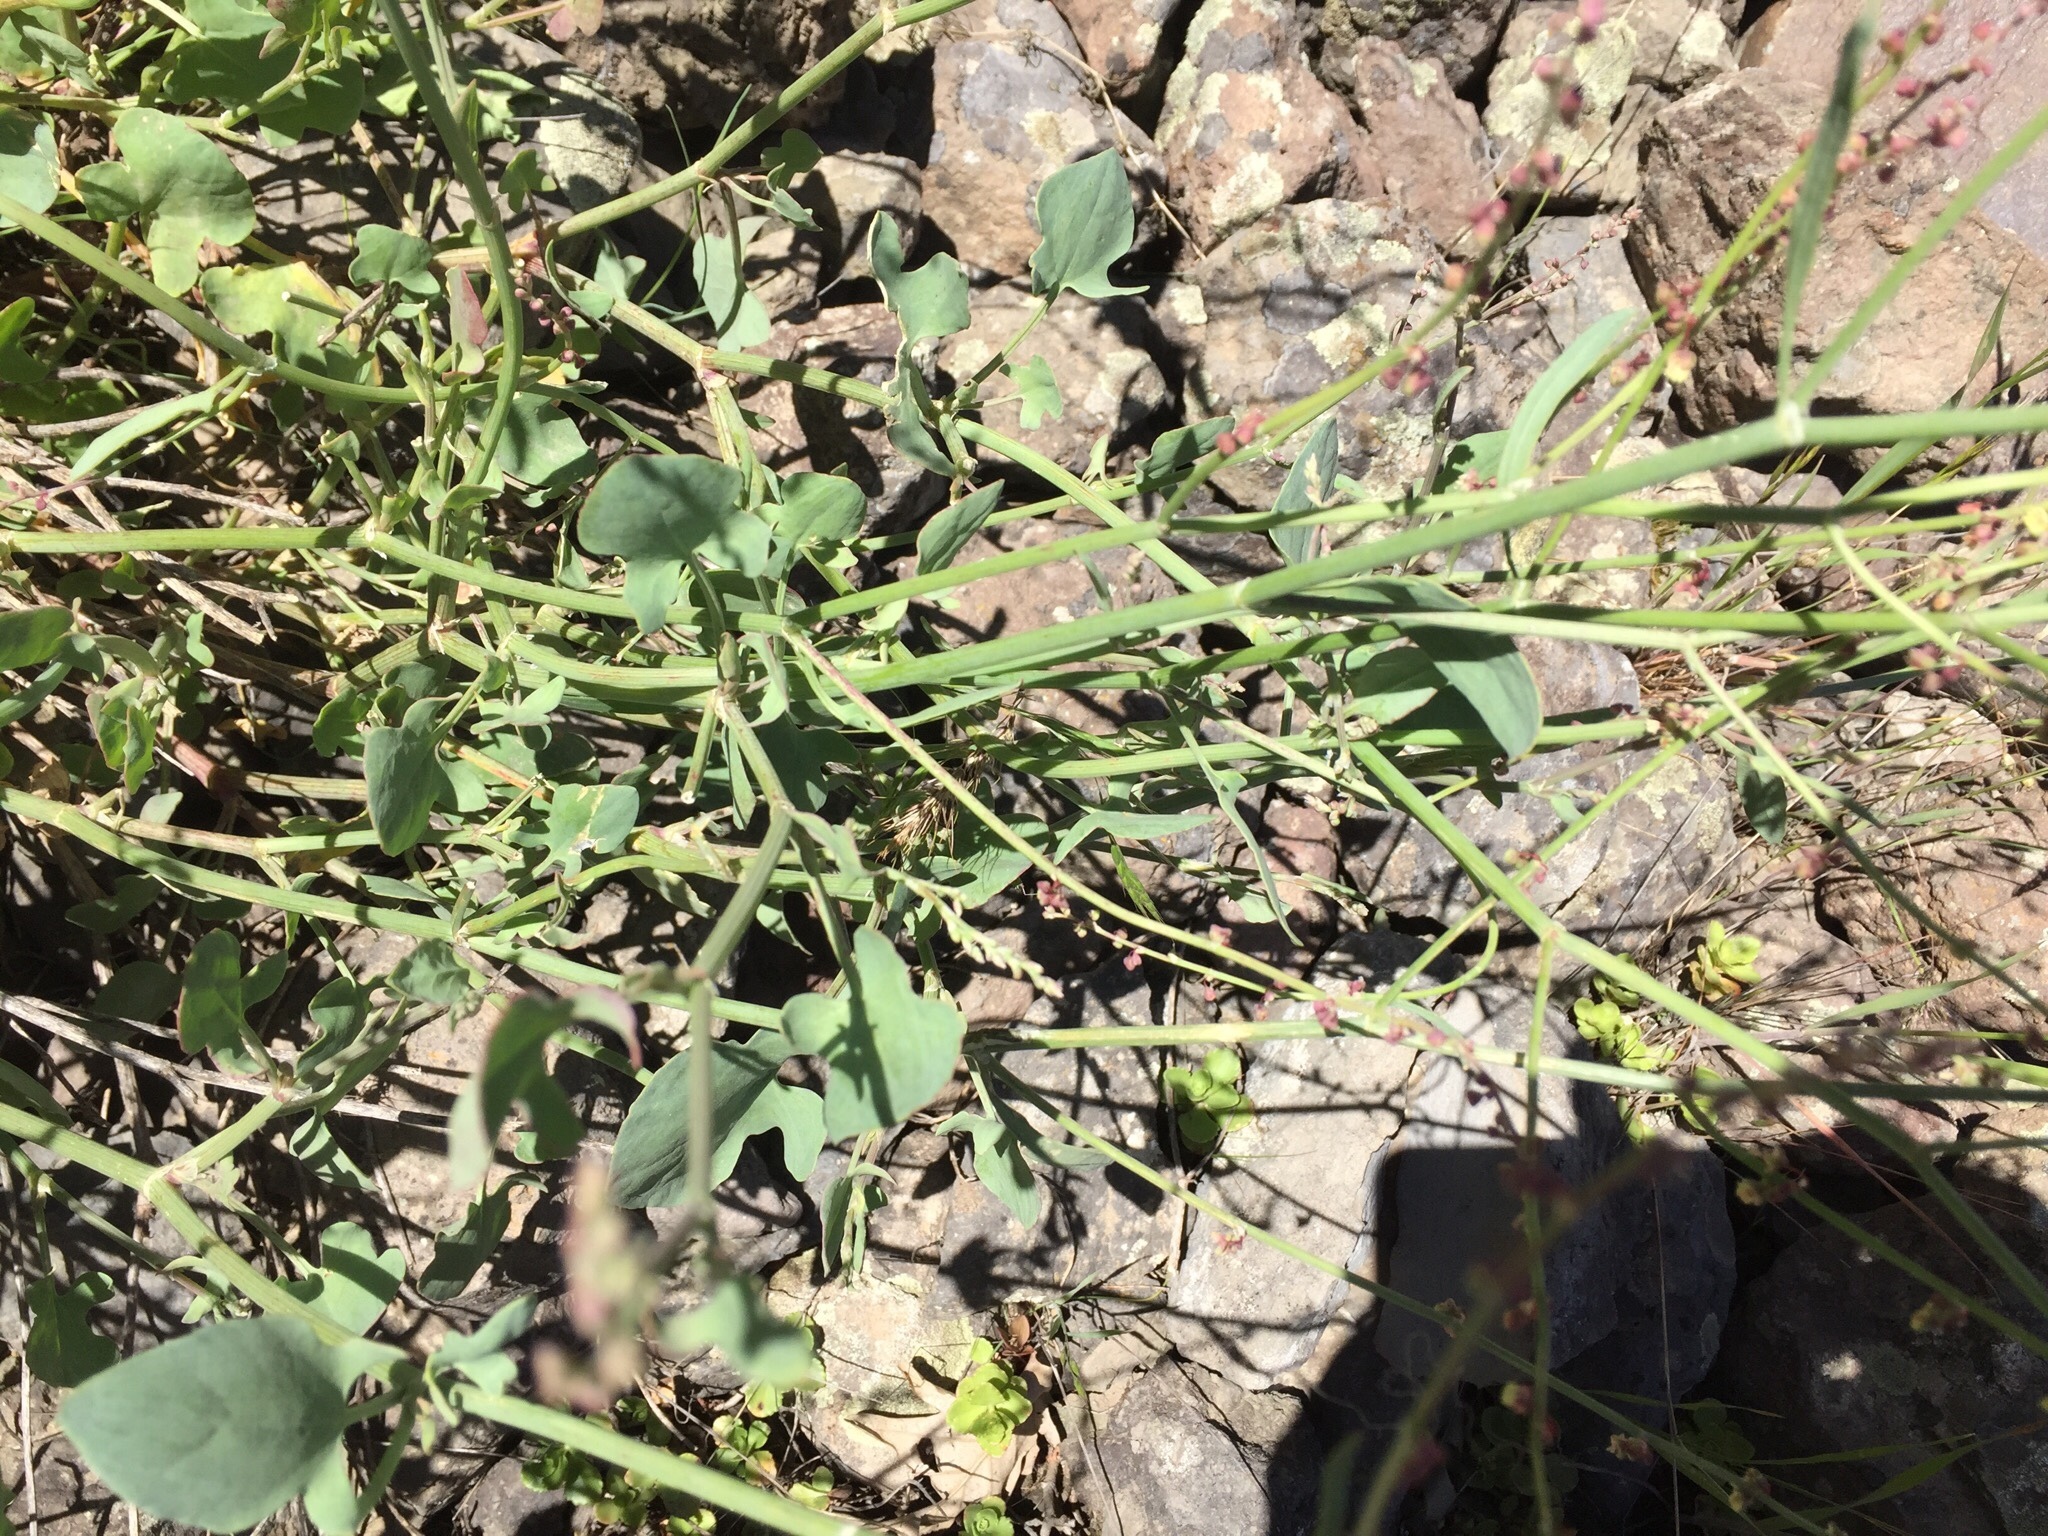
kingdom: Plantae
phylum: Tracheophyta
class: Magnoliopsida
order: Caryophyllales
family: Polygonaceae
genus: Rumex
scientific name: Rumex scutatus
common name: French sorrel
